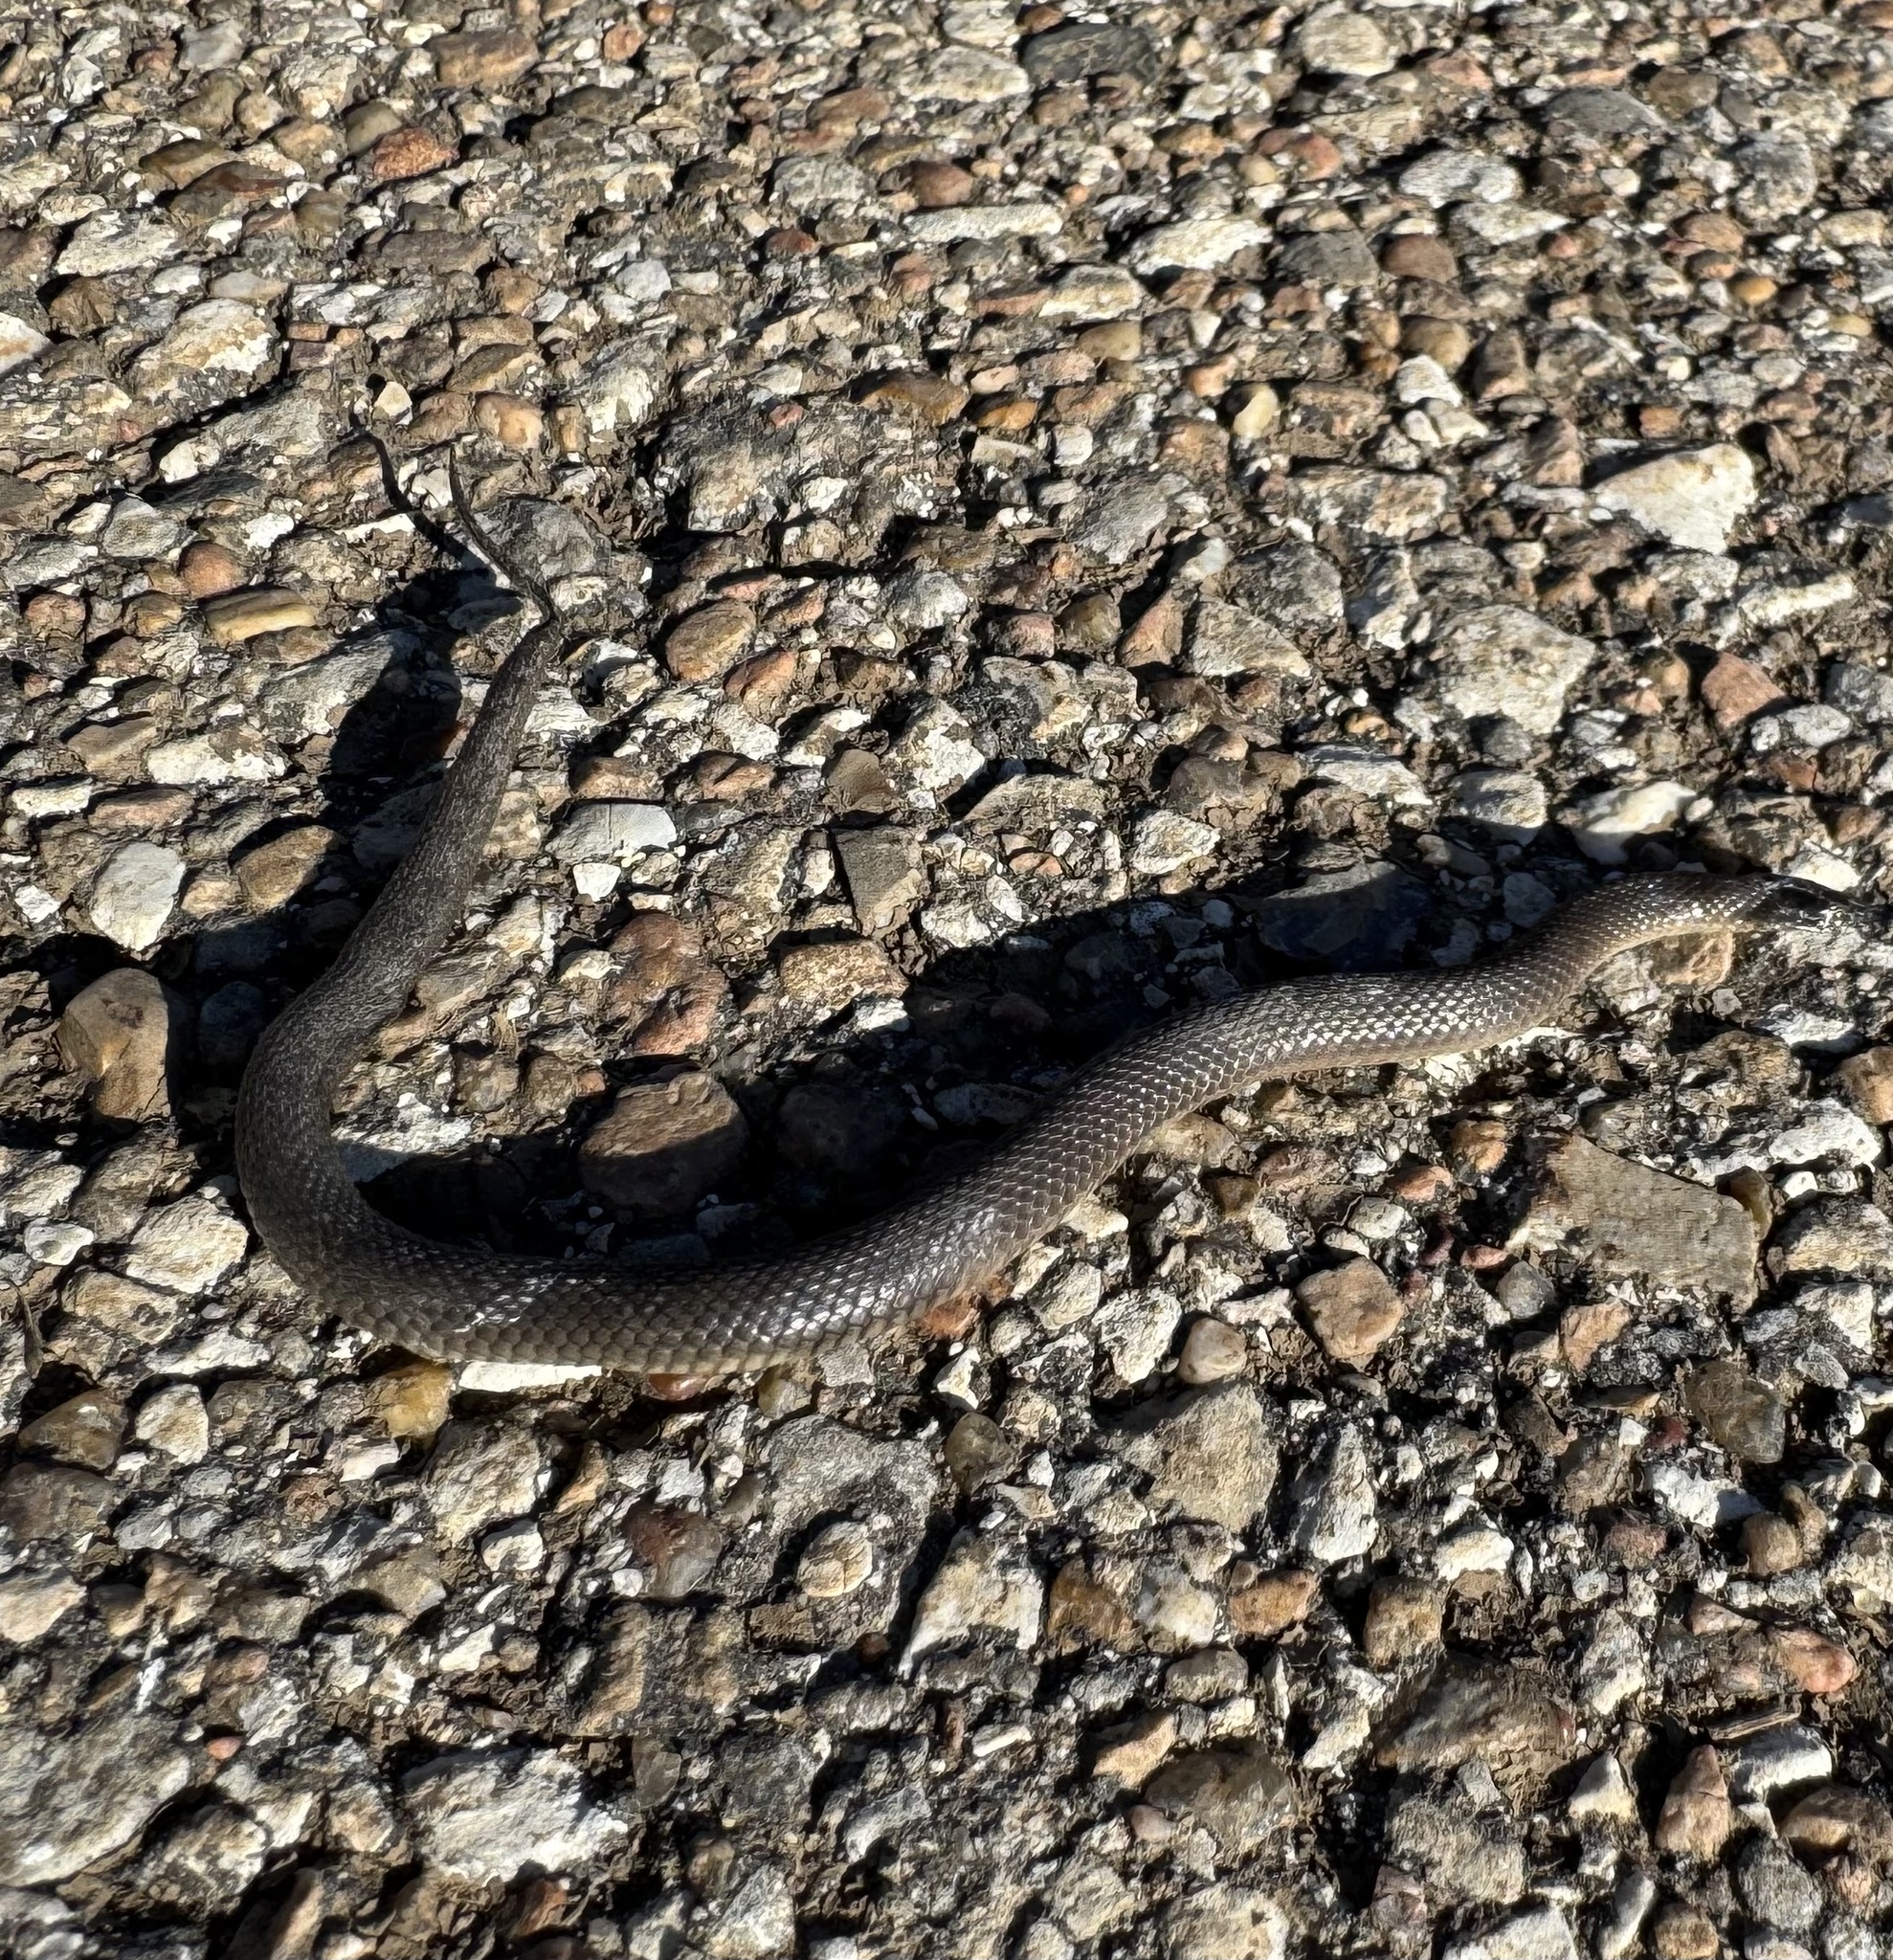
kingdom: Animalia
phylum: Chordata
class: Squamata
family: Colubridae
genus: Haldea
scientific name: Haldea striatula
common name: Rough earth snake
